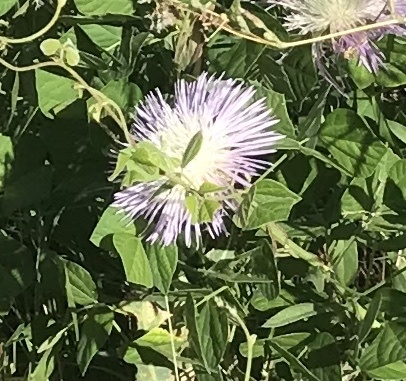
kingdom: Plantae
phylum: Tracheophyta
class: Magnoliopsida
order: Asterales
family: Asteraceae
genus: Plectocephalus
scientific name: Plectocephalus americanus
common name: American basket-flower
